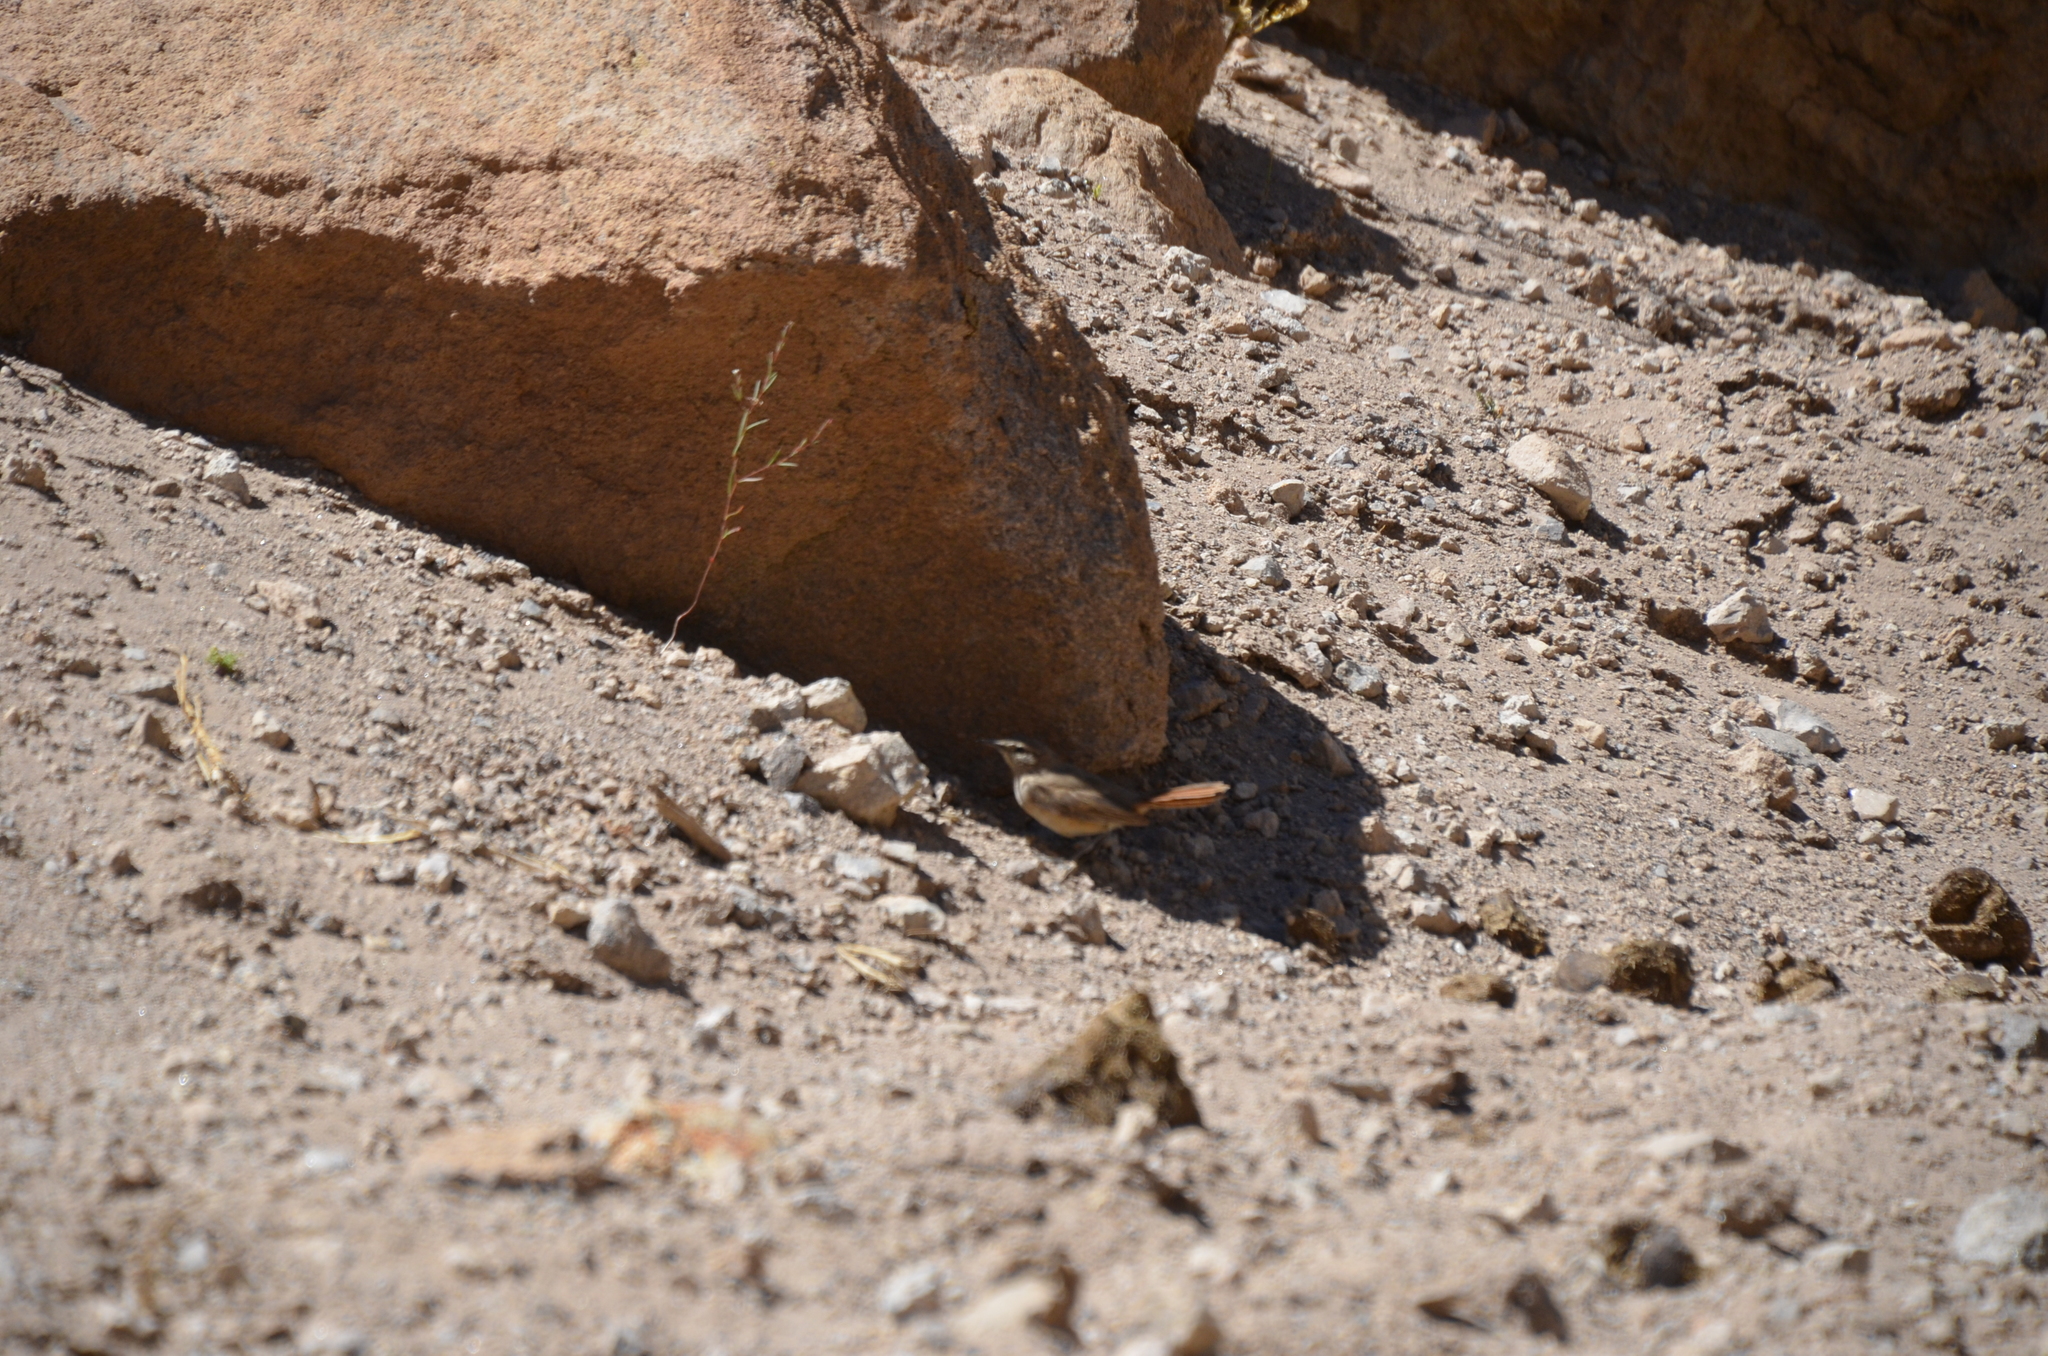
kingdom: Animalia
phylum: Chordata
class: Aves
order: Passeriformes
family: Furnariidae
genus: Geositta
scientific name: Geositta rufipennis
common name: Rufous-banded miner
